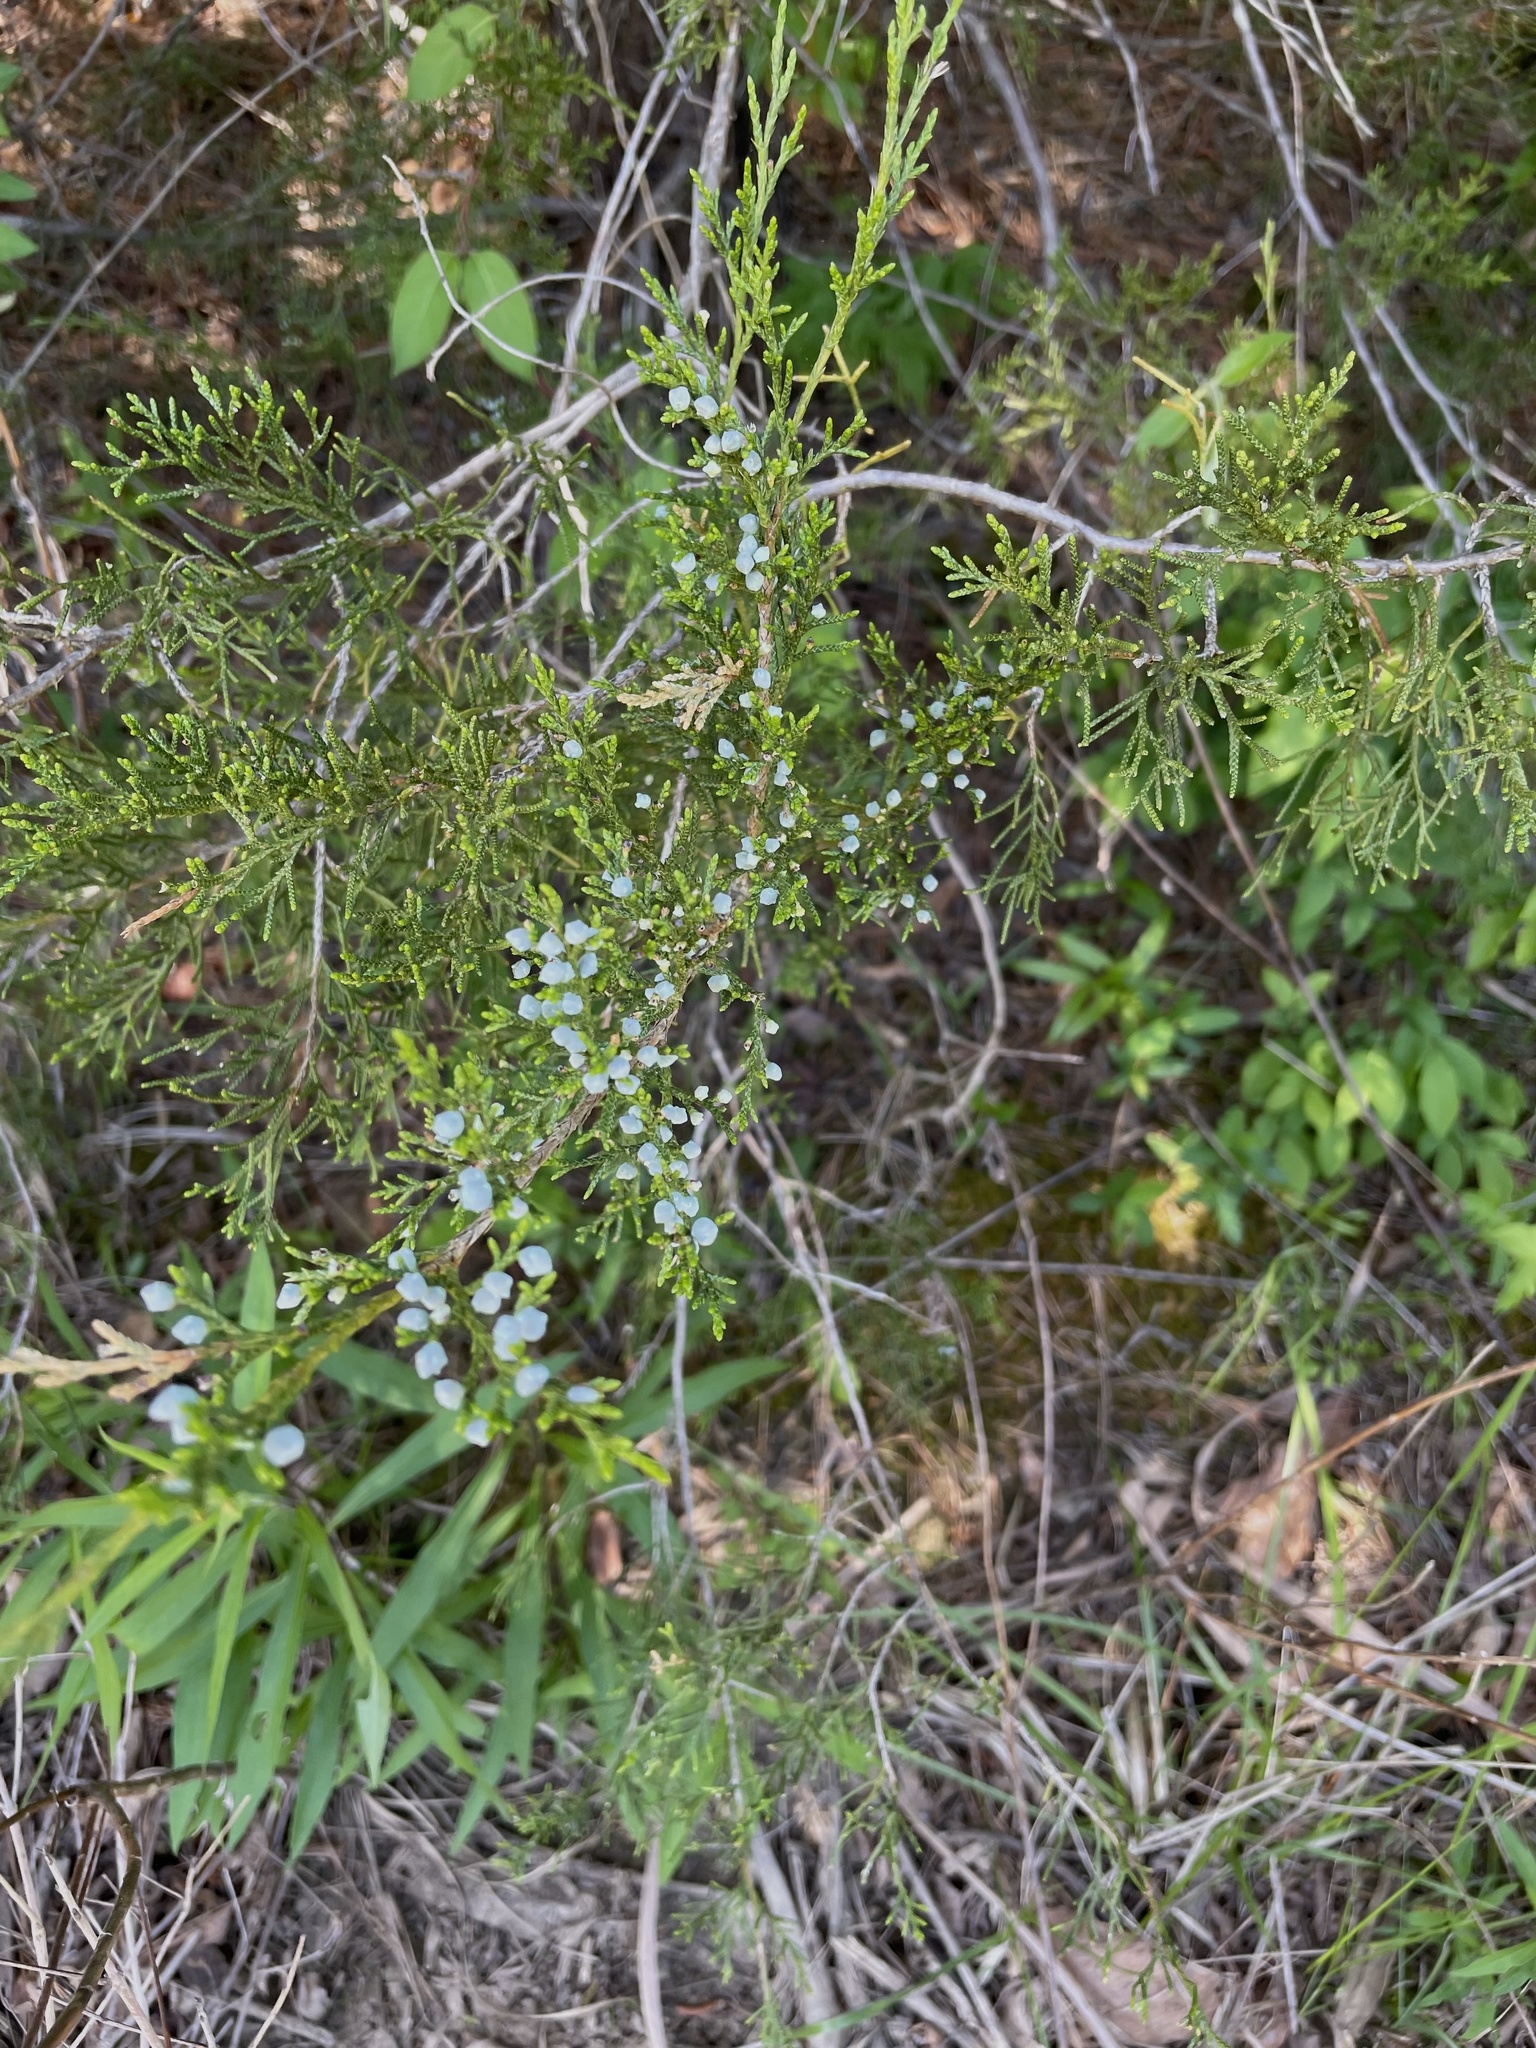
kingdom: Plantae
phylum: Tracheophyta
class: Pinopsida
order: Pinales
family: Cupressaceae
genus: Juniperus
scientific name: Juniperus virginiana
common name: Red juniper
